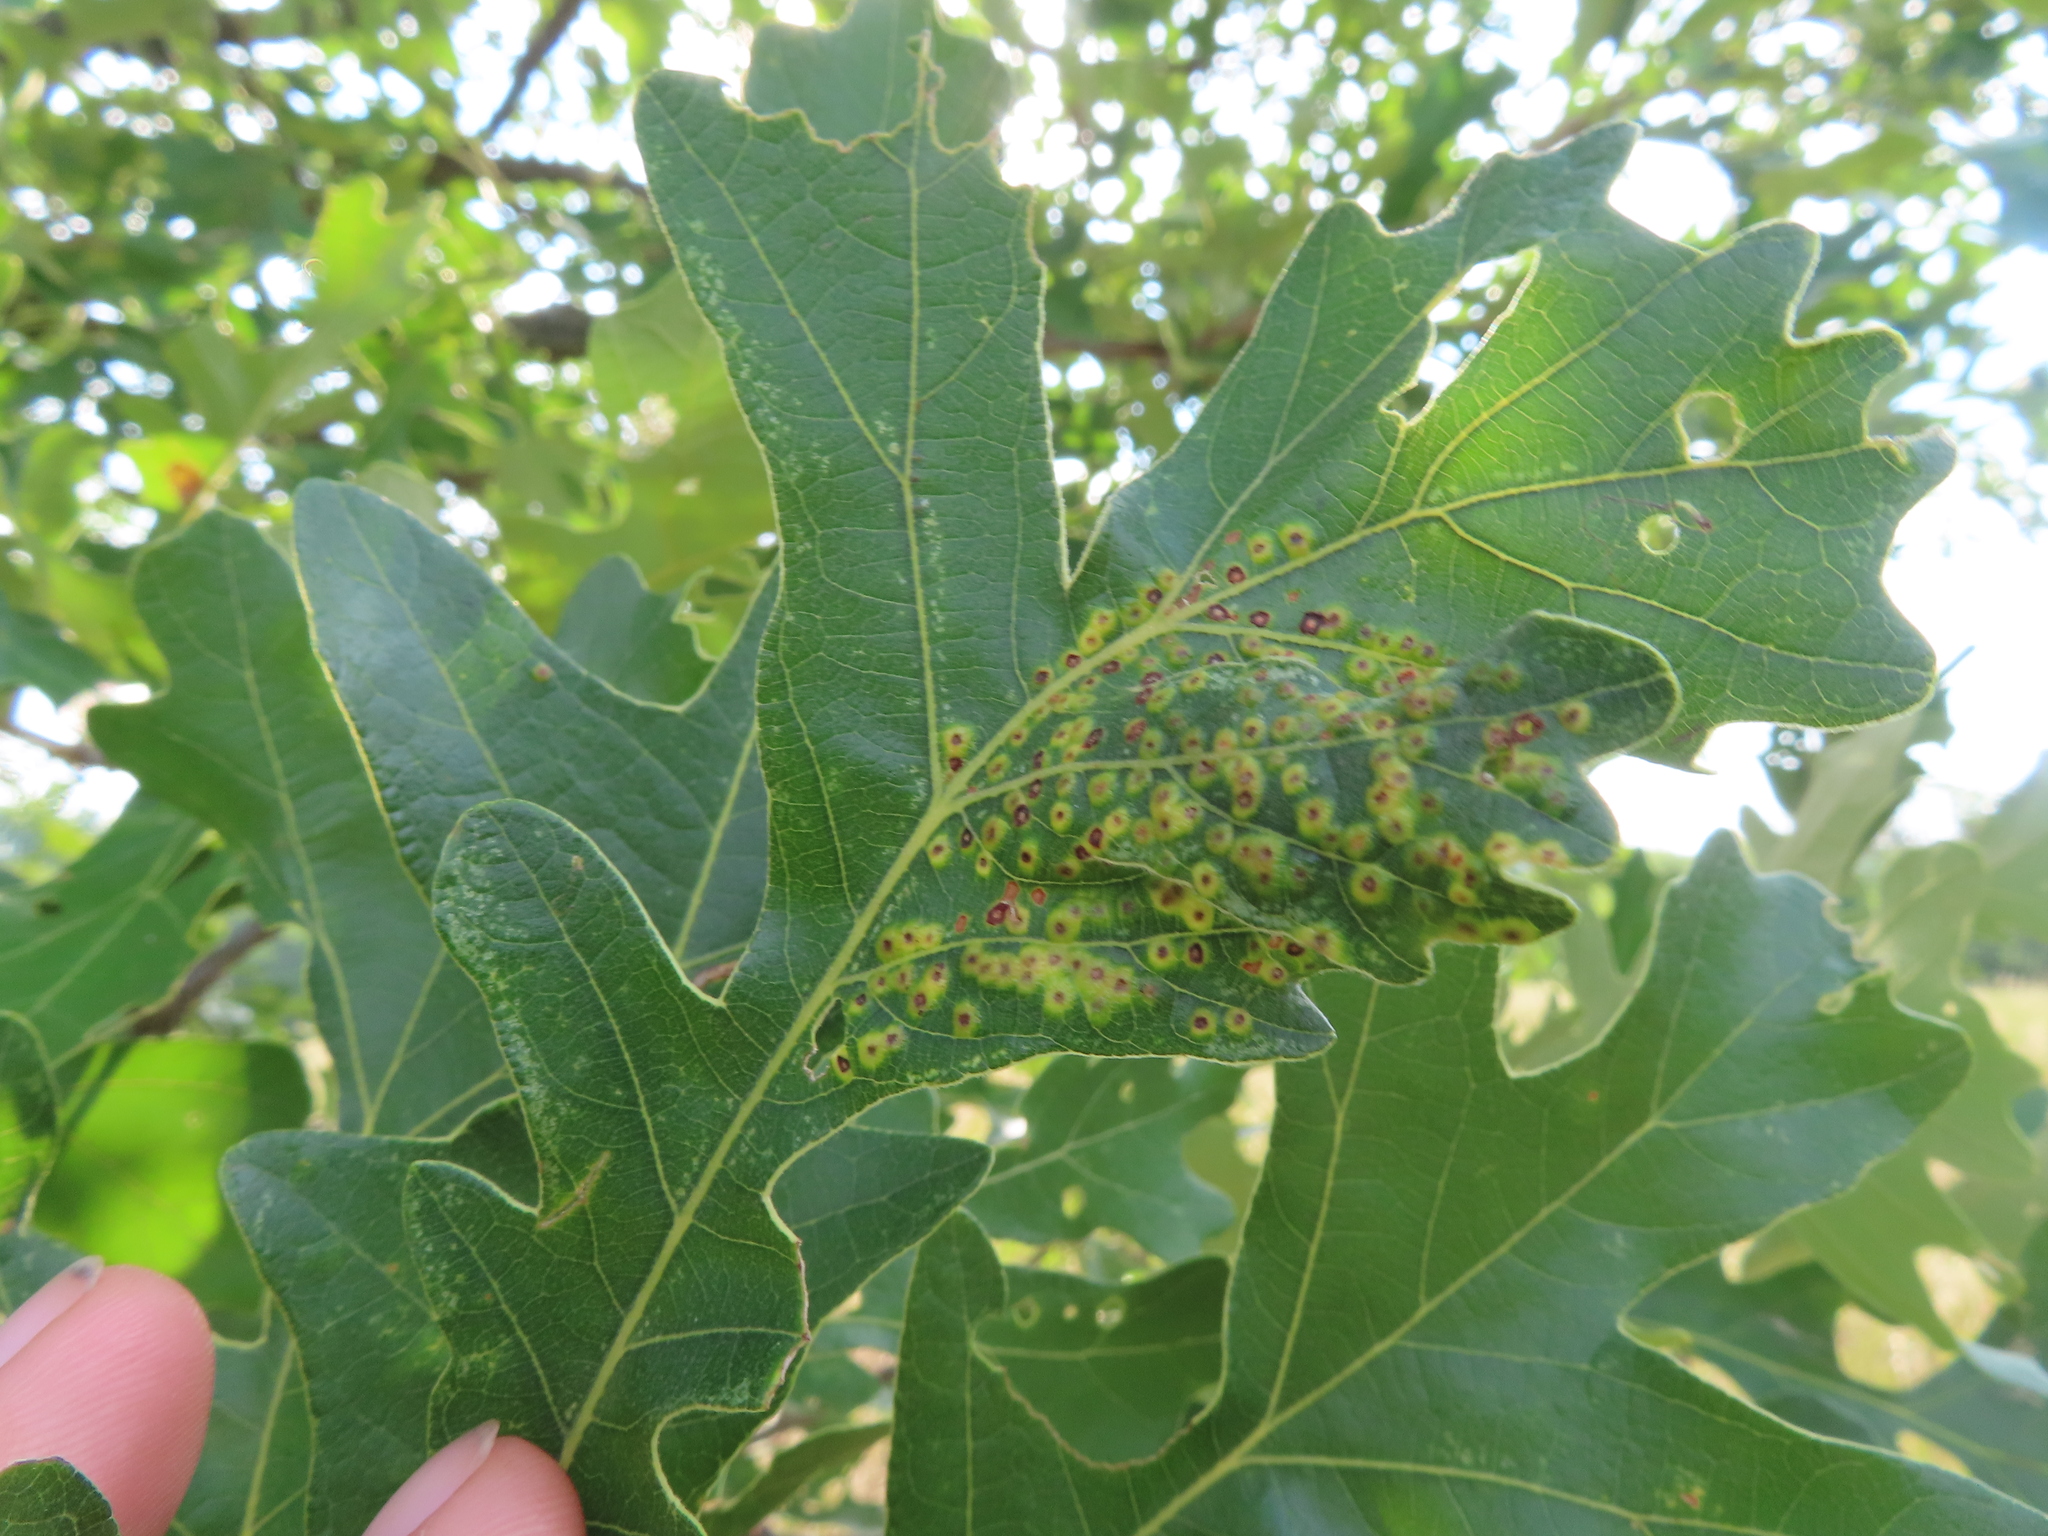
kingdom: Animalia
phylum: Arthropoda
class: Insecta
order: Hymenoptera
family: Cynipidae
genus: Neuroterus
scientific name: Neuroterus saltarius
